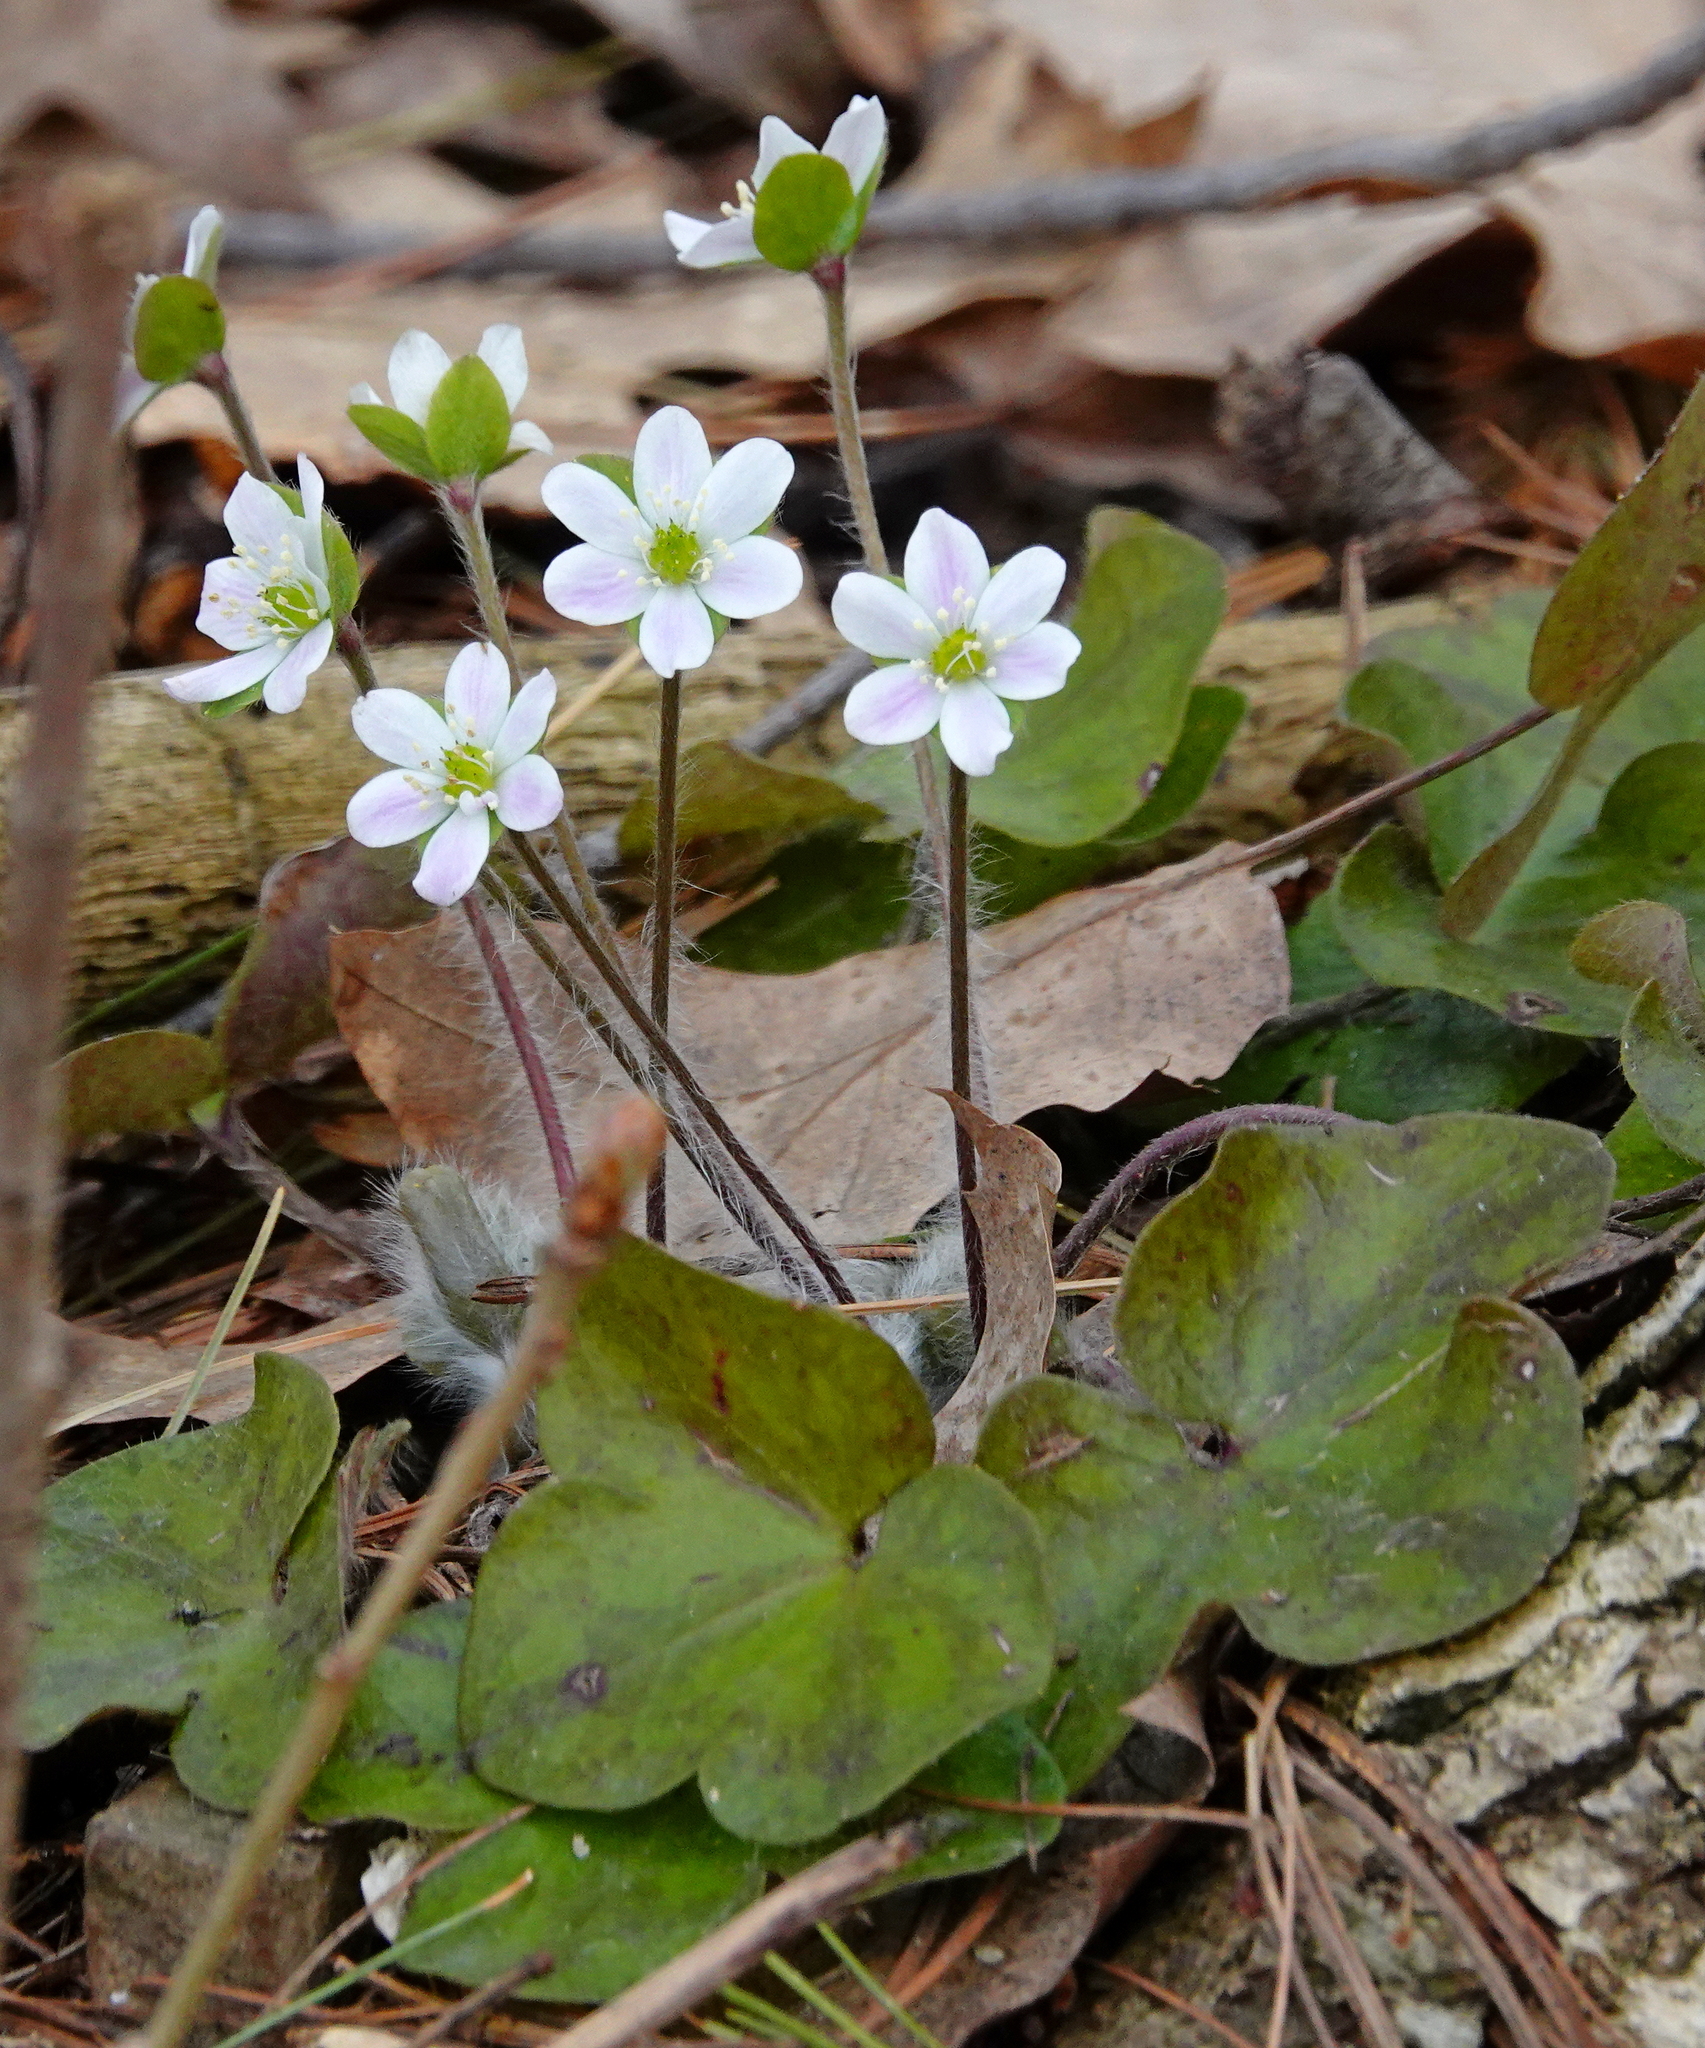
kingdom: Plantae
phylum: Tracheophyta
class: Magnoliopsida
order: Ranunculales
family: Ranunculaceae
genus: Hepatica
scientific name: Hepatica americana
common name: American hepatica
